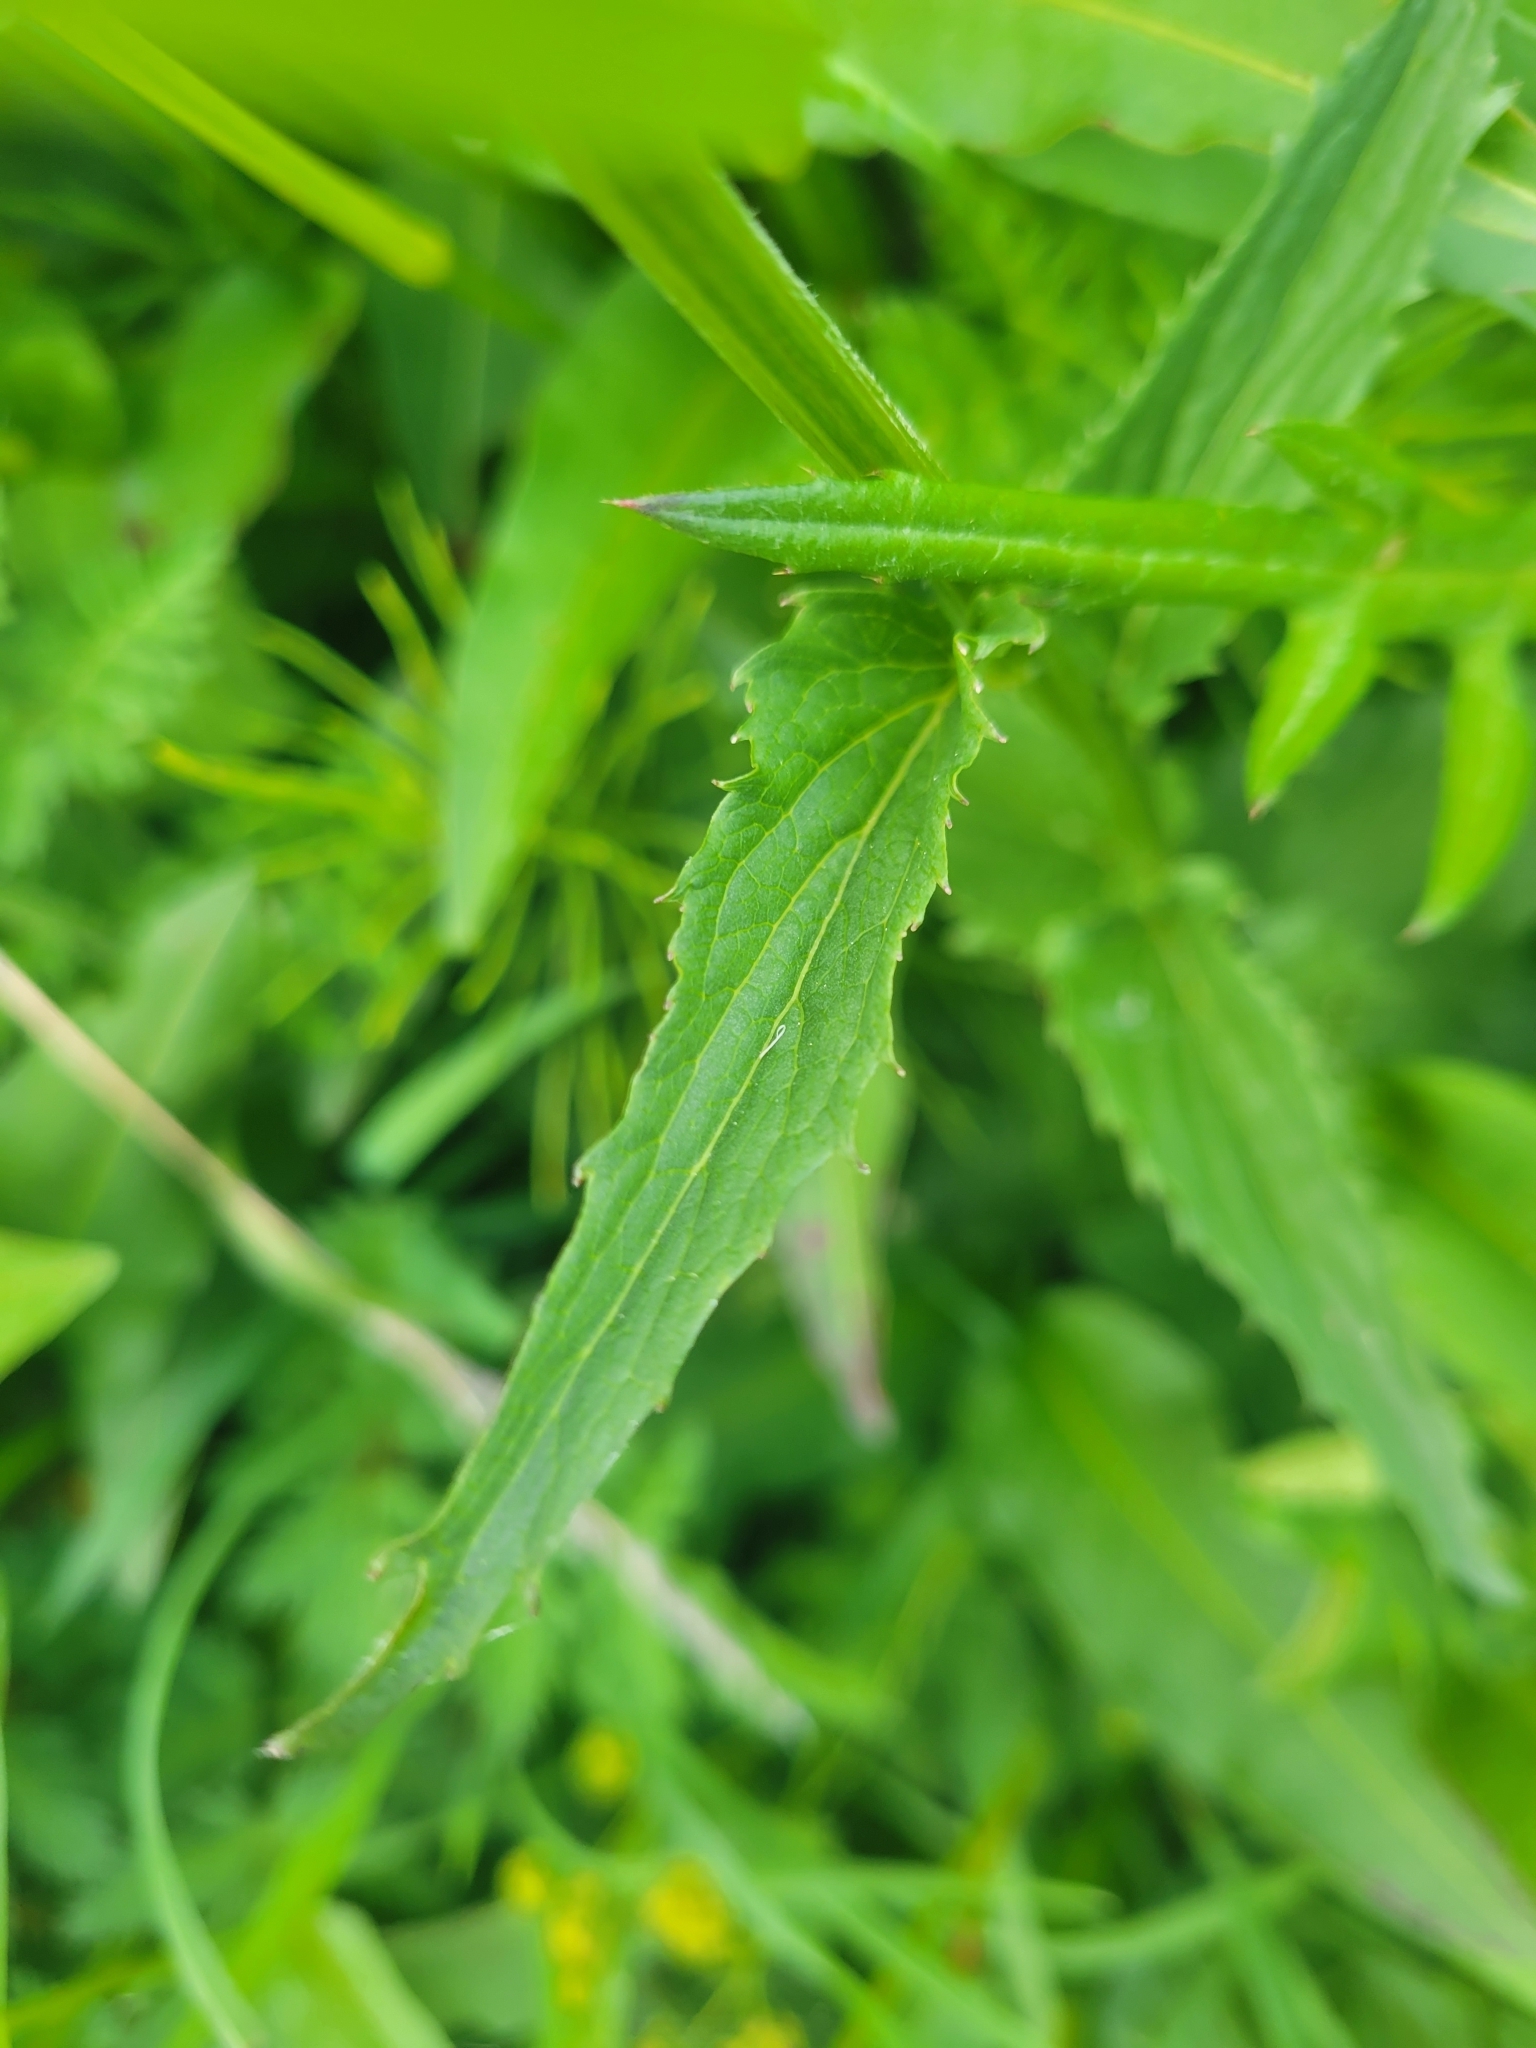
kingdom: Plantae
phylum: Tracheophyta
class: Magnoliopsida
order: Asterales
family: Campanulaceae
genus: Phyteuma
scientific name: Phyteuma ovatum
